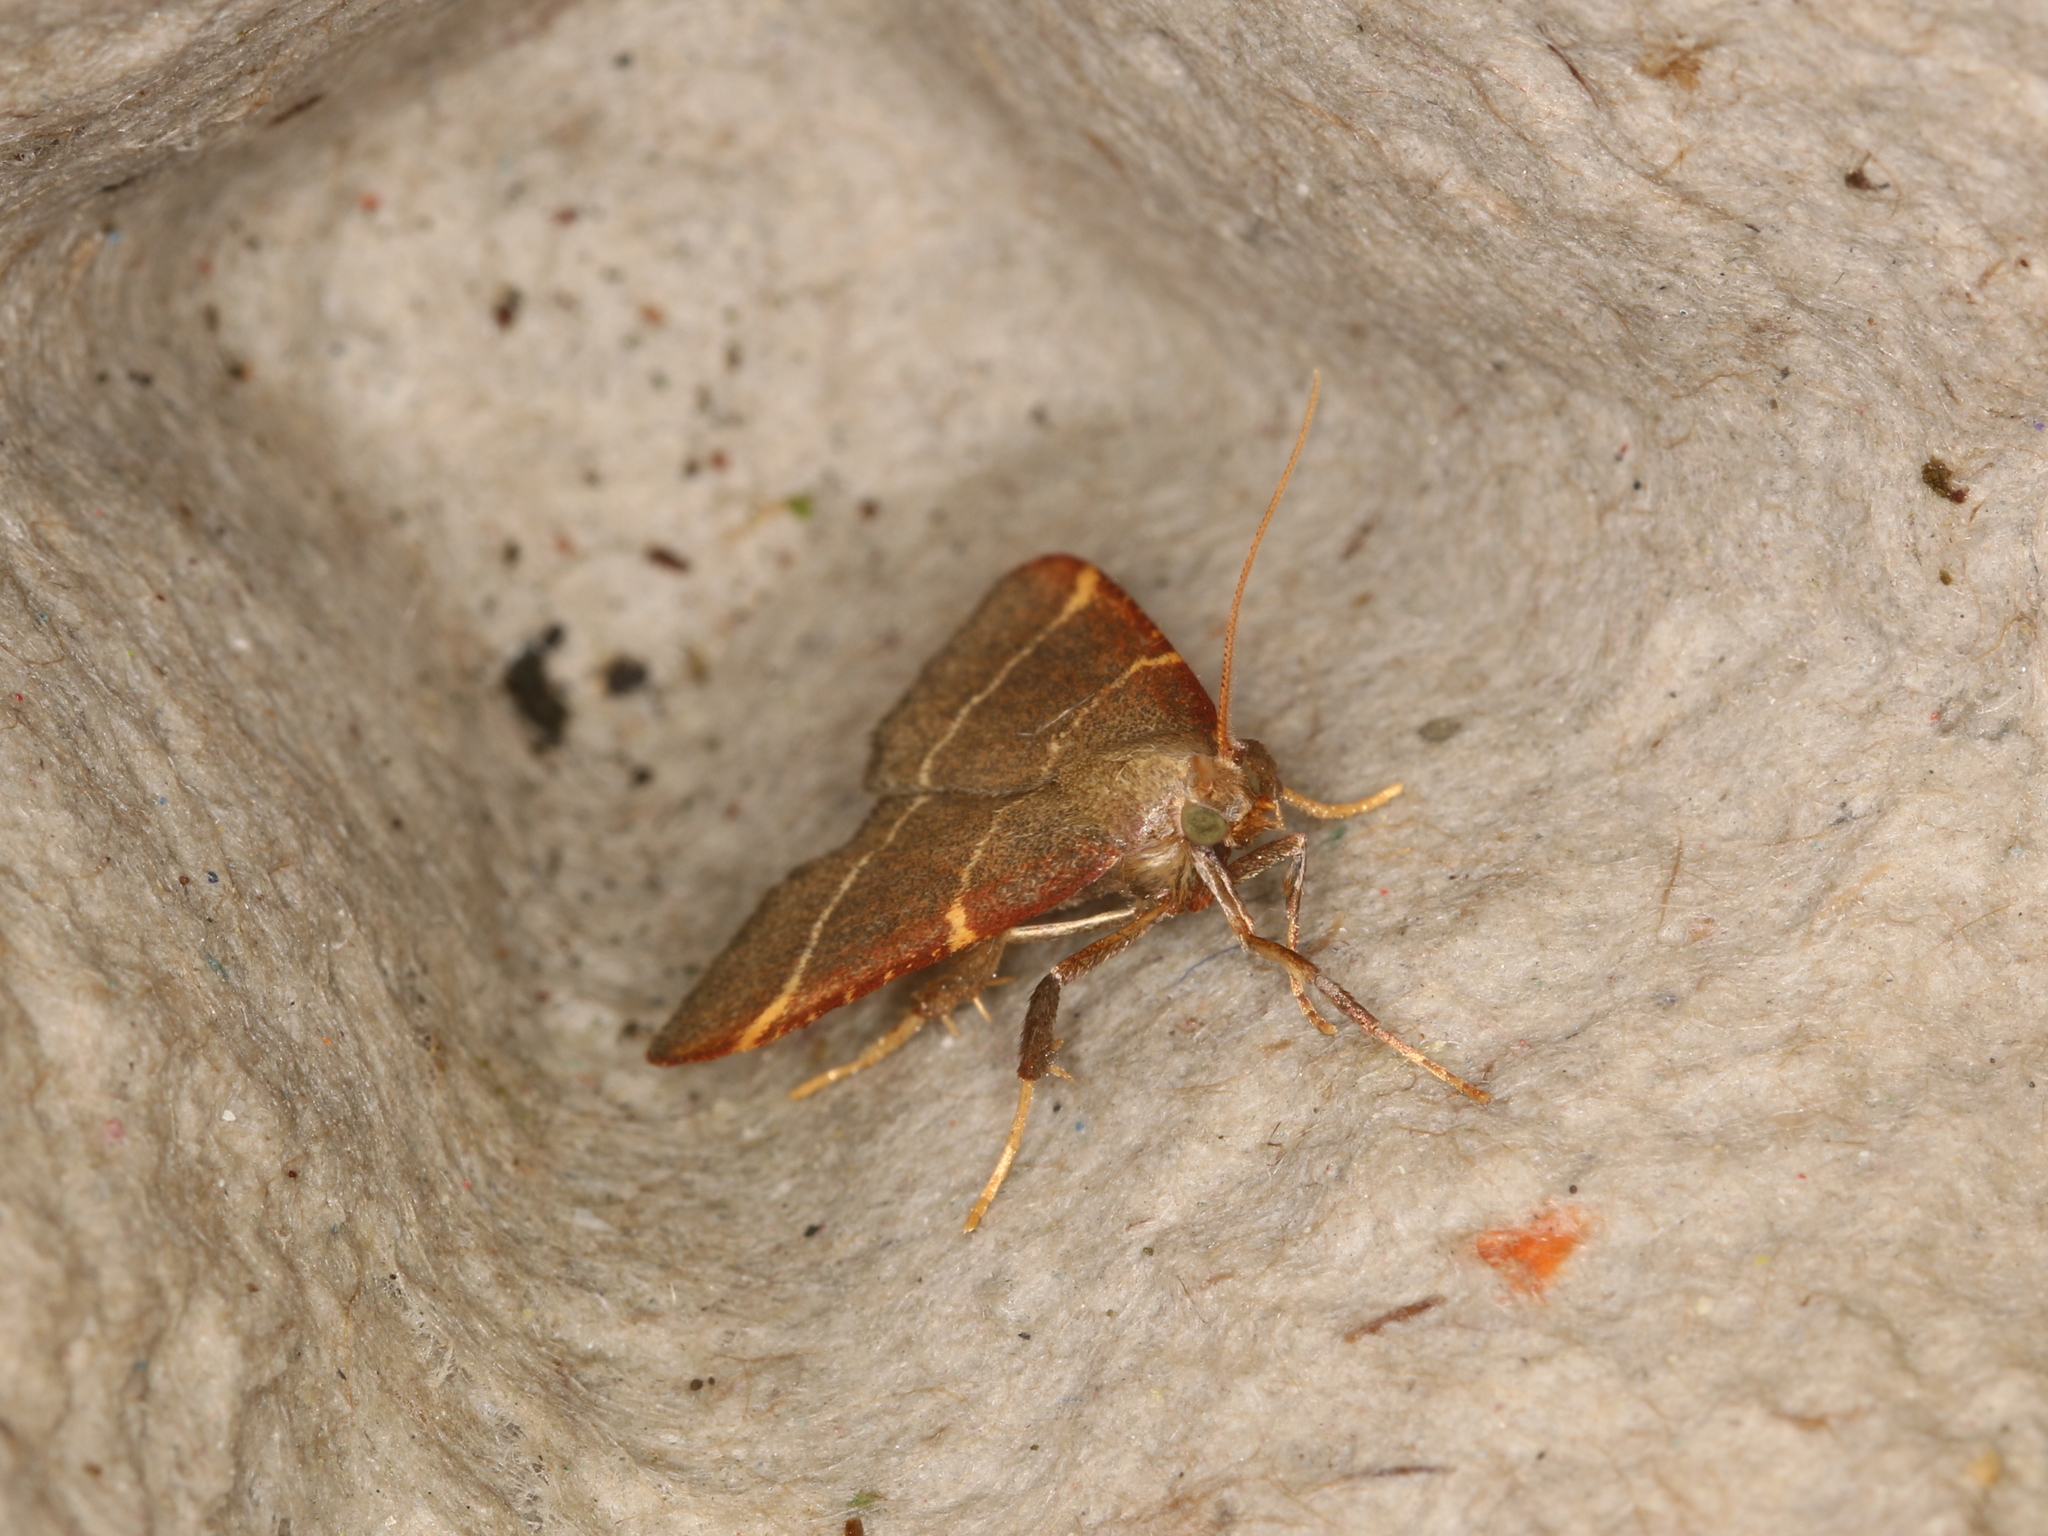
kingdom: Animalia
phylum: Arthropoda
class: Insecta
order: Lepidoptera
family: Pyralidae
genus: Hypsopygia
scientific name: Hypsopygia glaucinalis
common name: Double-striped tabby
